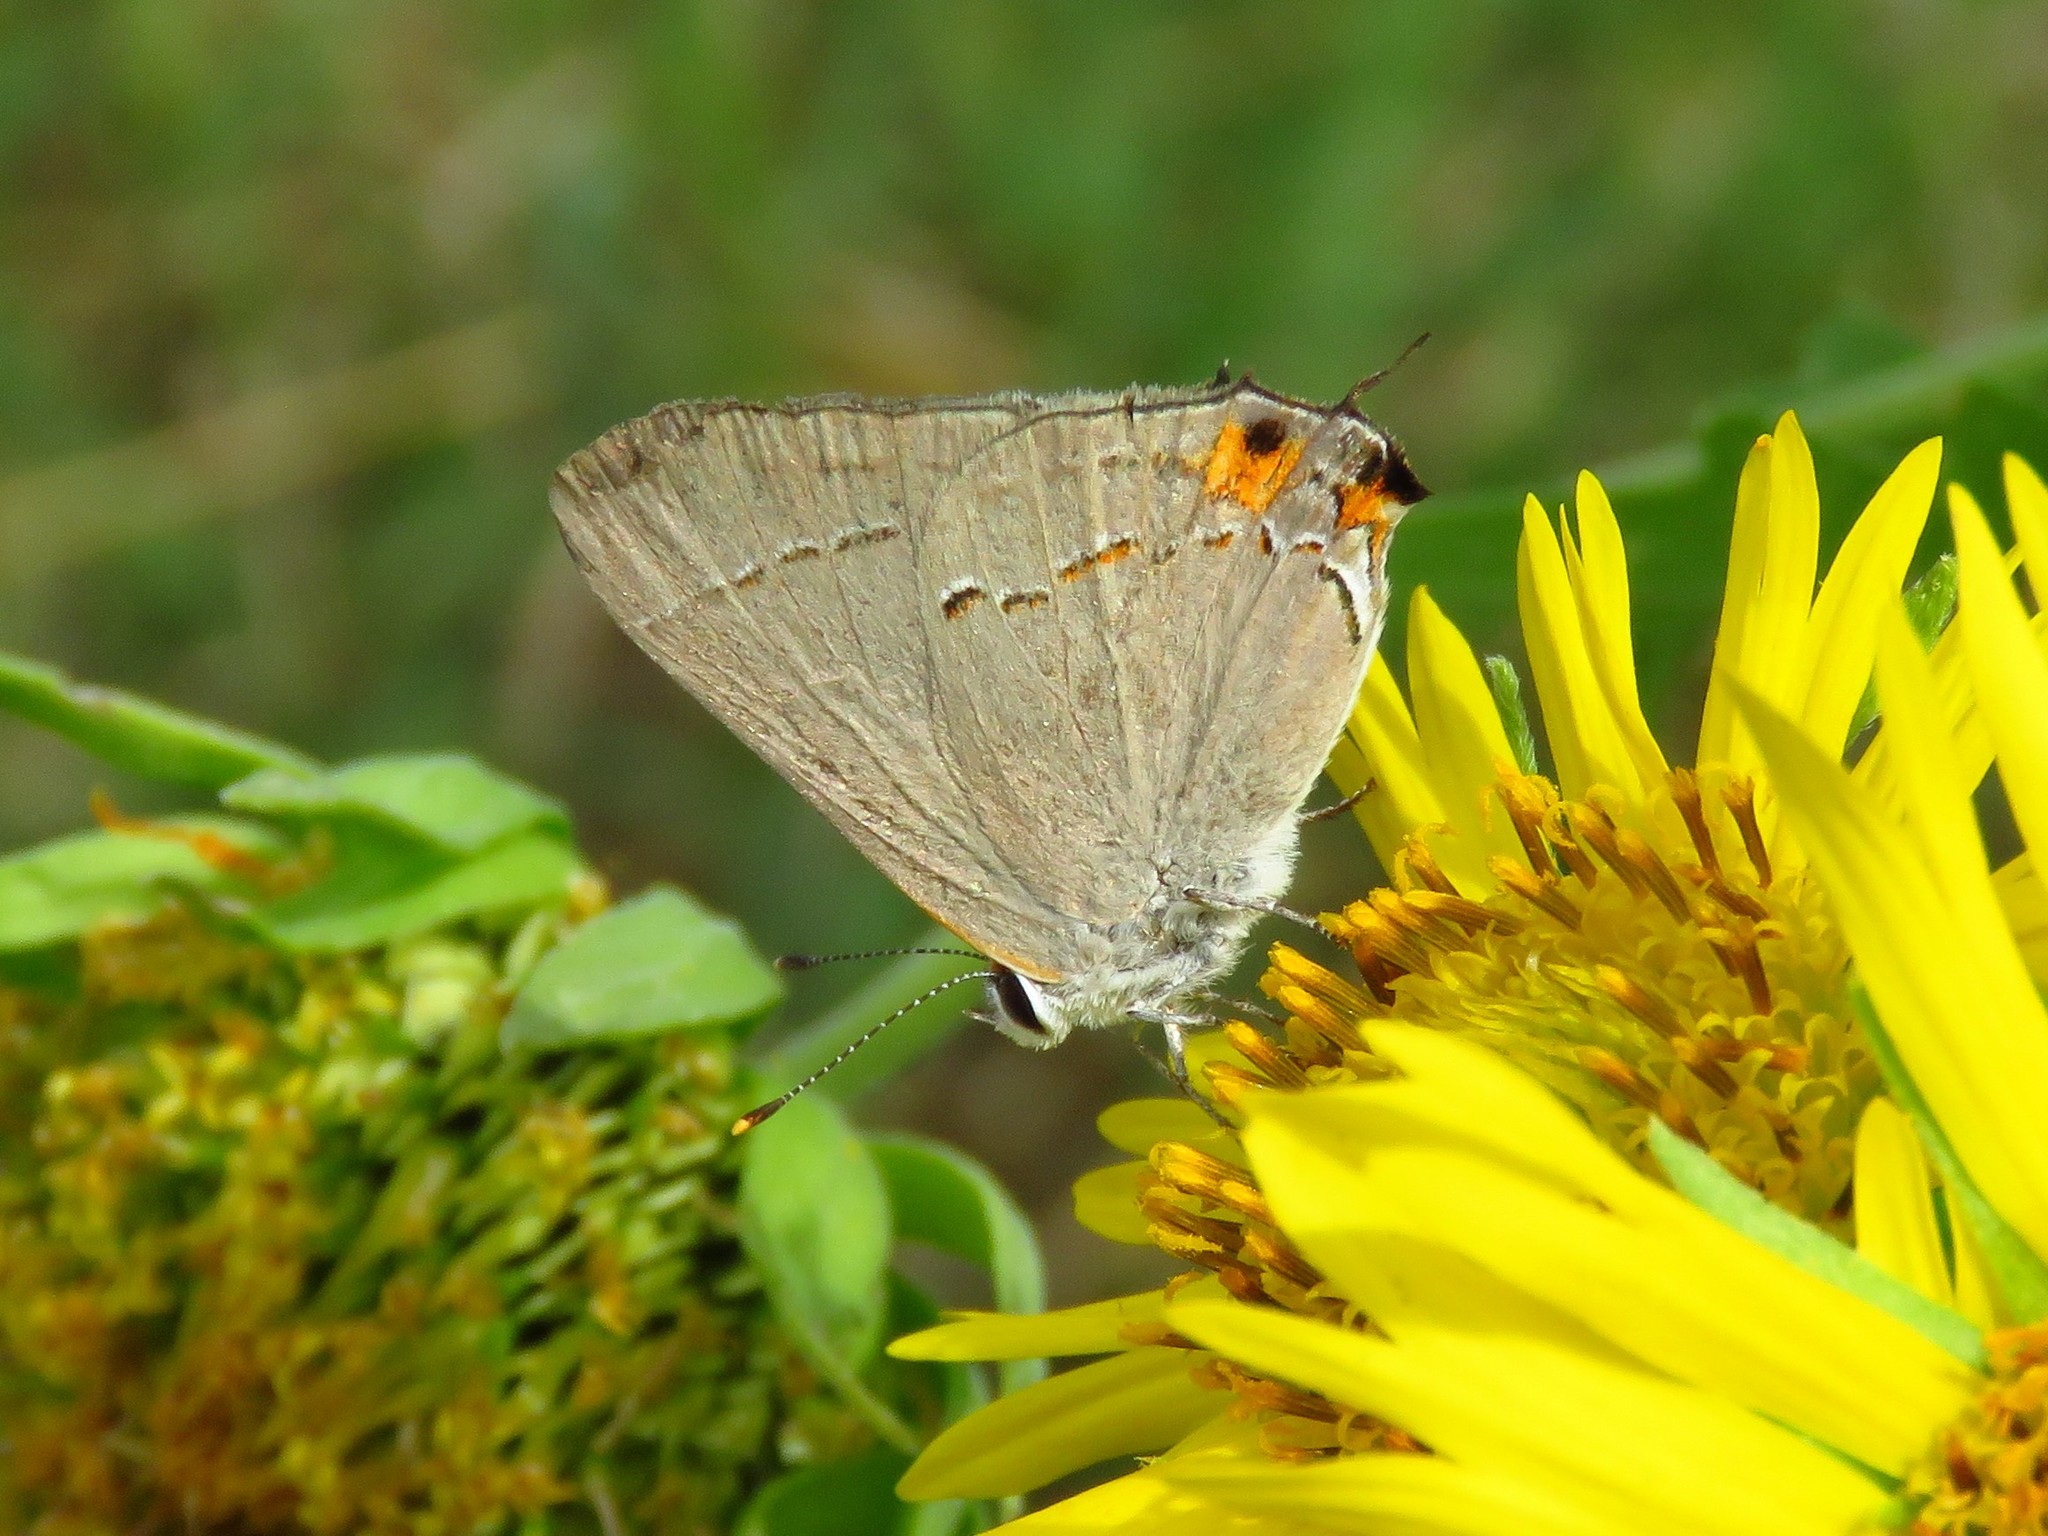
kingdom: Animalia
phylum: Arthropoda
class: Insecta
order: Lepidoptera
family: Lycaenidae
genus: Strymon
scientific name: Strymon melinus
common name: Gray hairstreak
